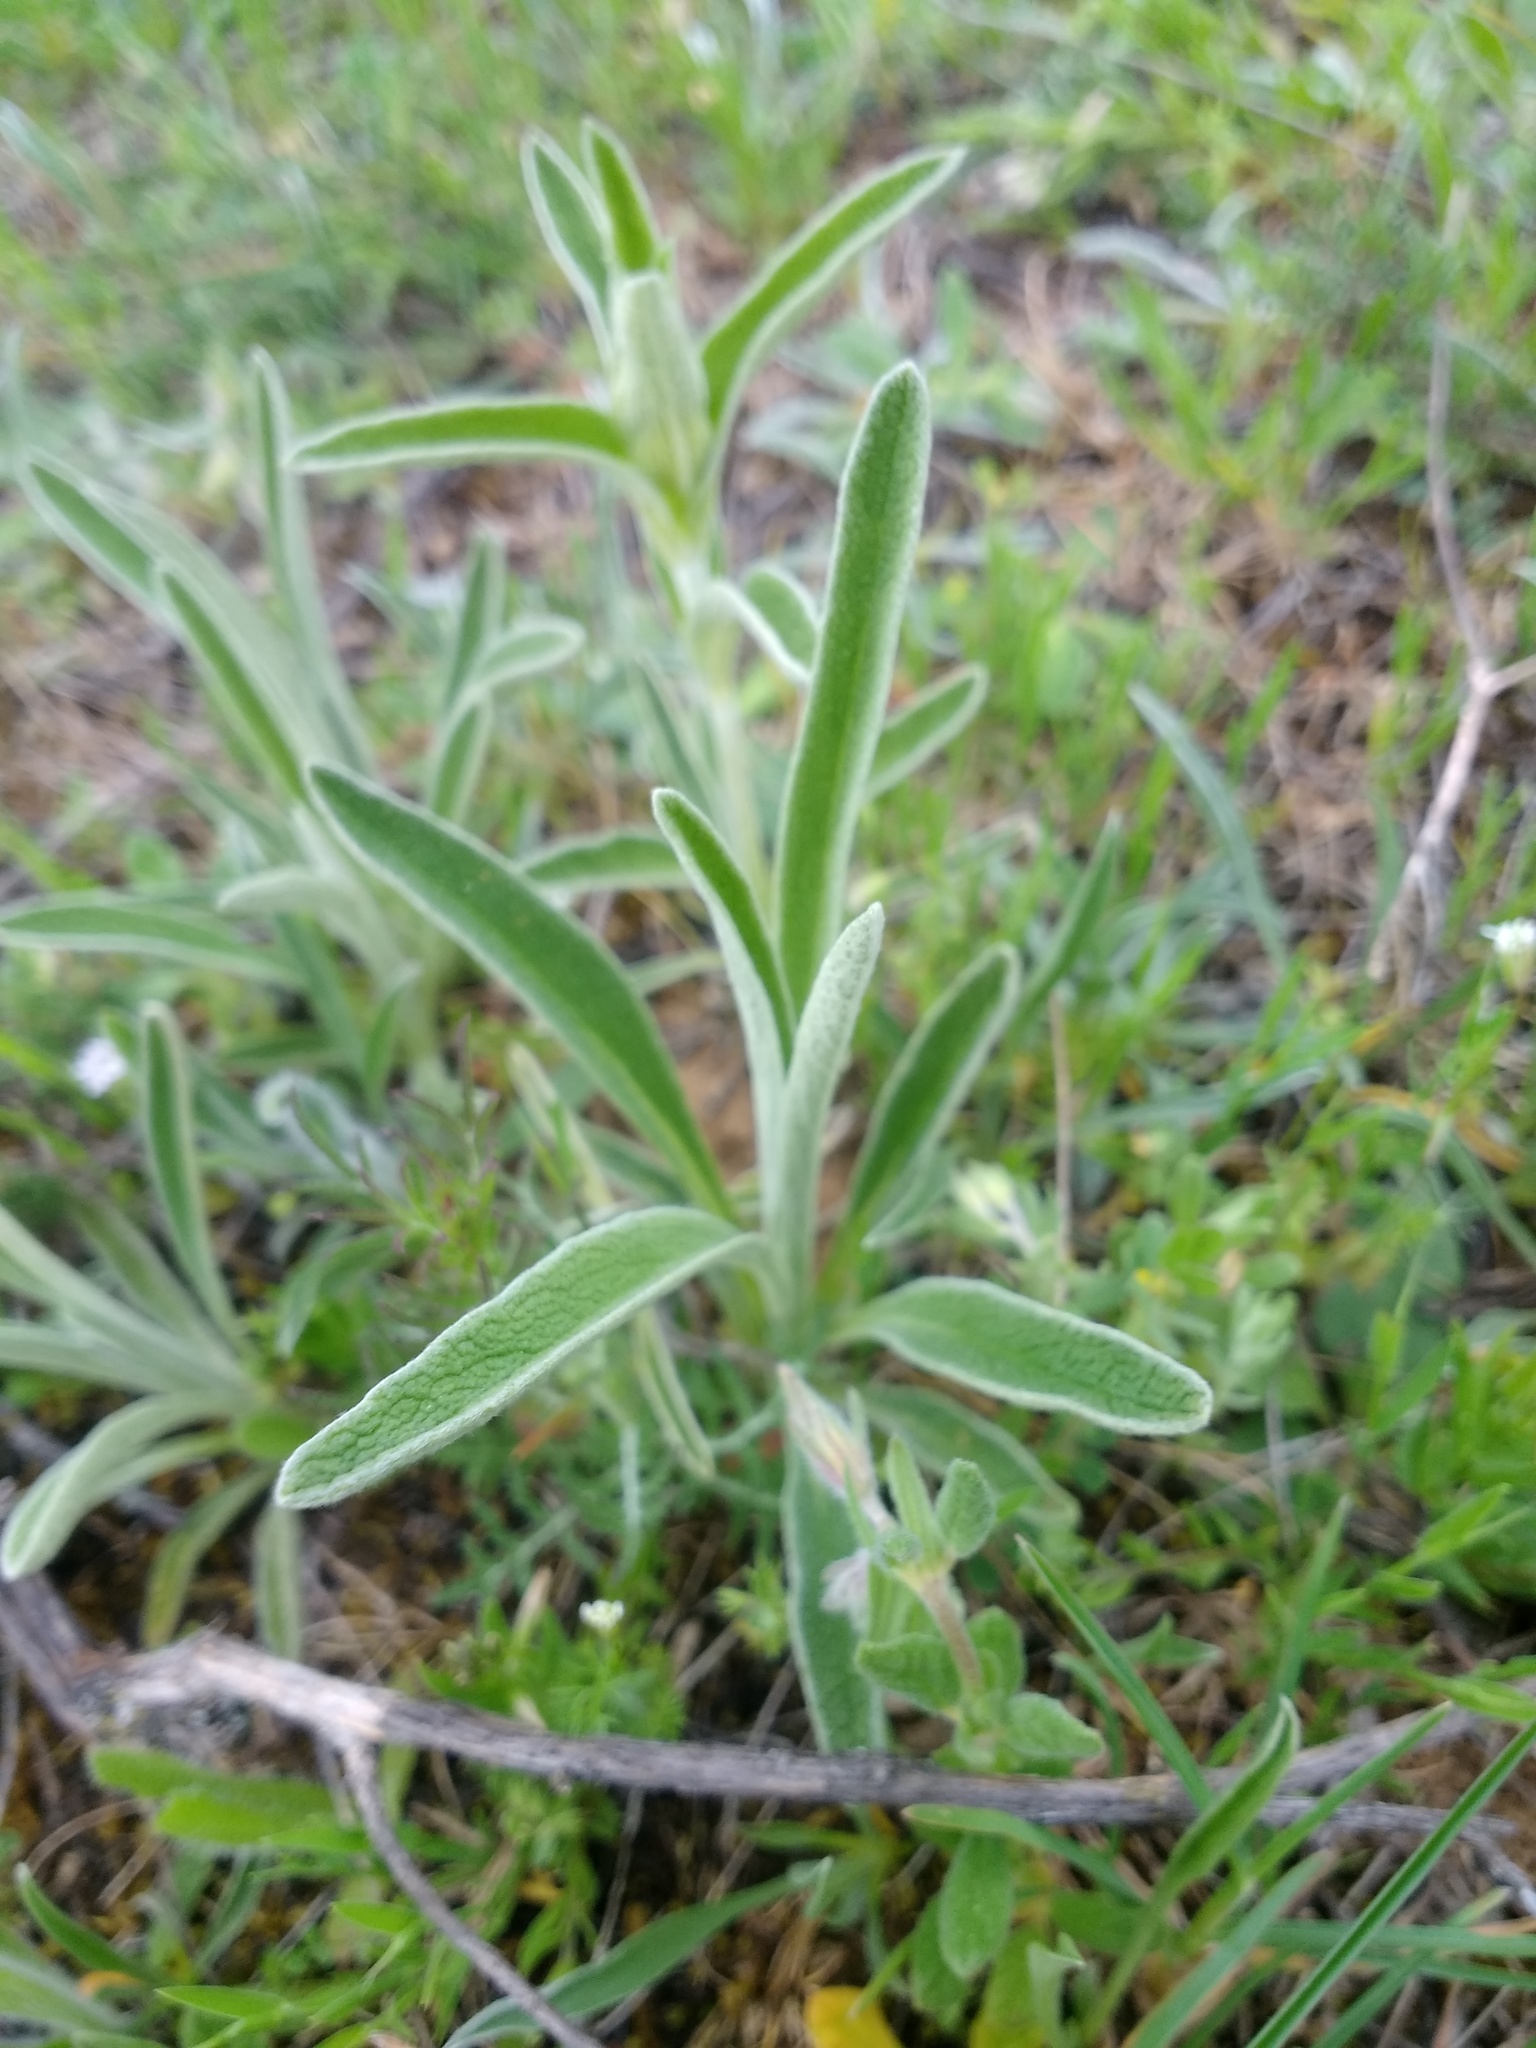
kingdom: Plantae
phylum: Tracheophyta
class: Magnoliopsida
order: Lamiales
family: Lamiaceae
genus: Phlomis
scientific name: Phlomis lychnitis
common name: Lampwickplant
